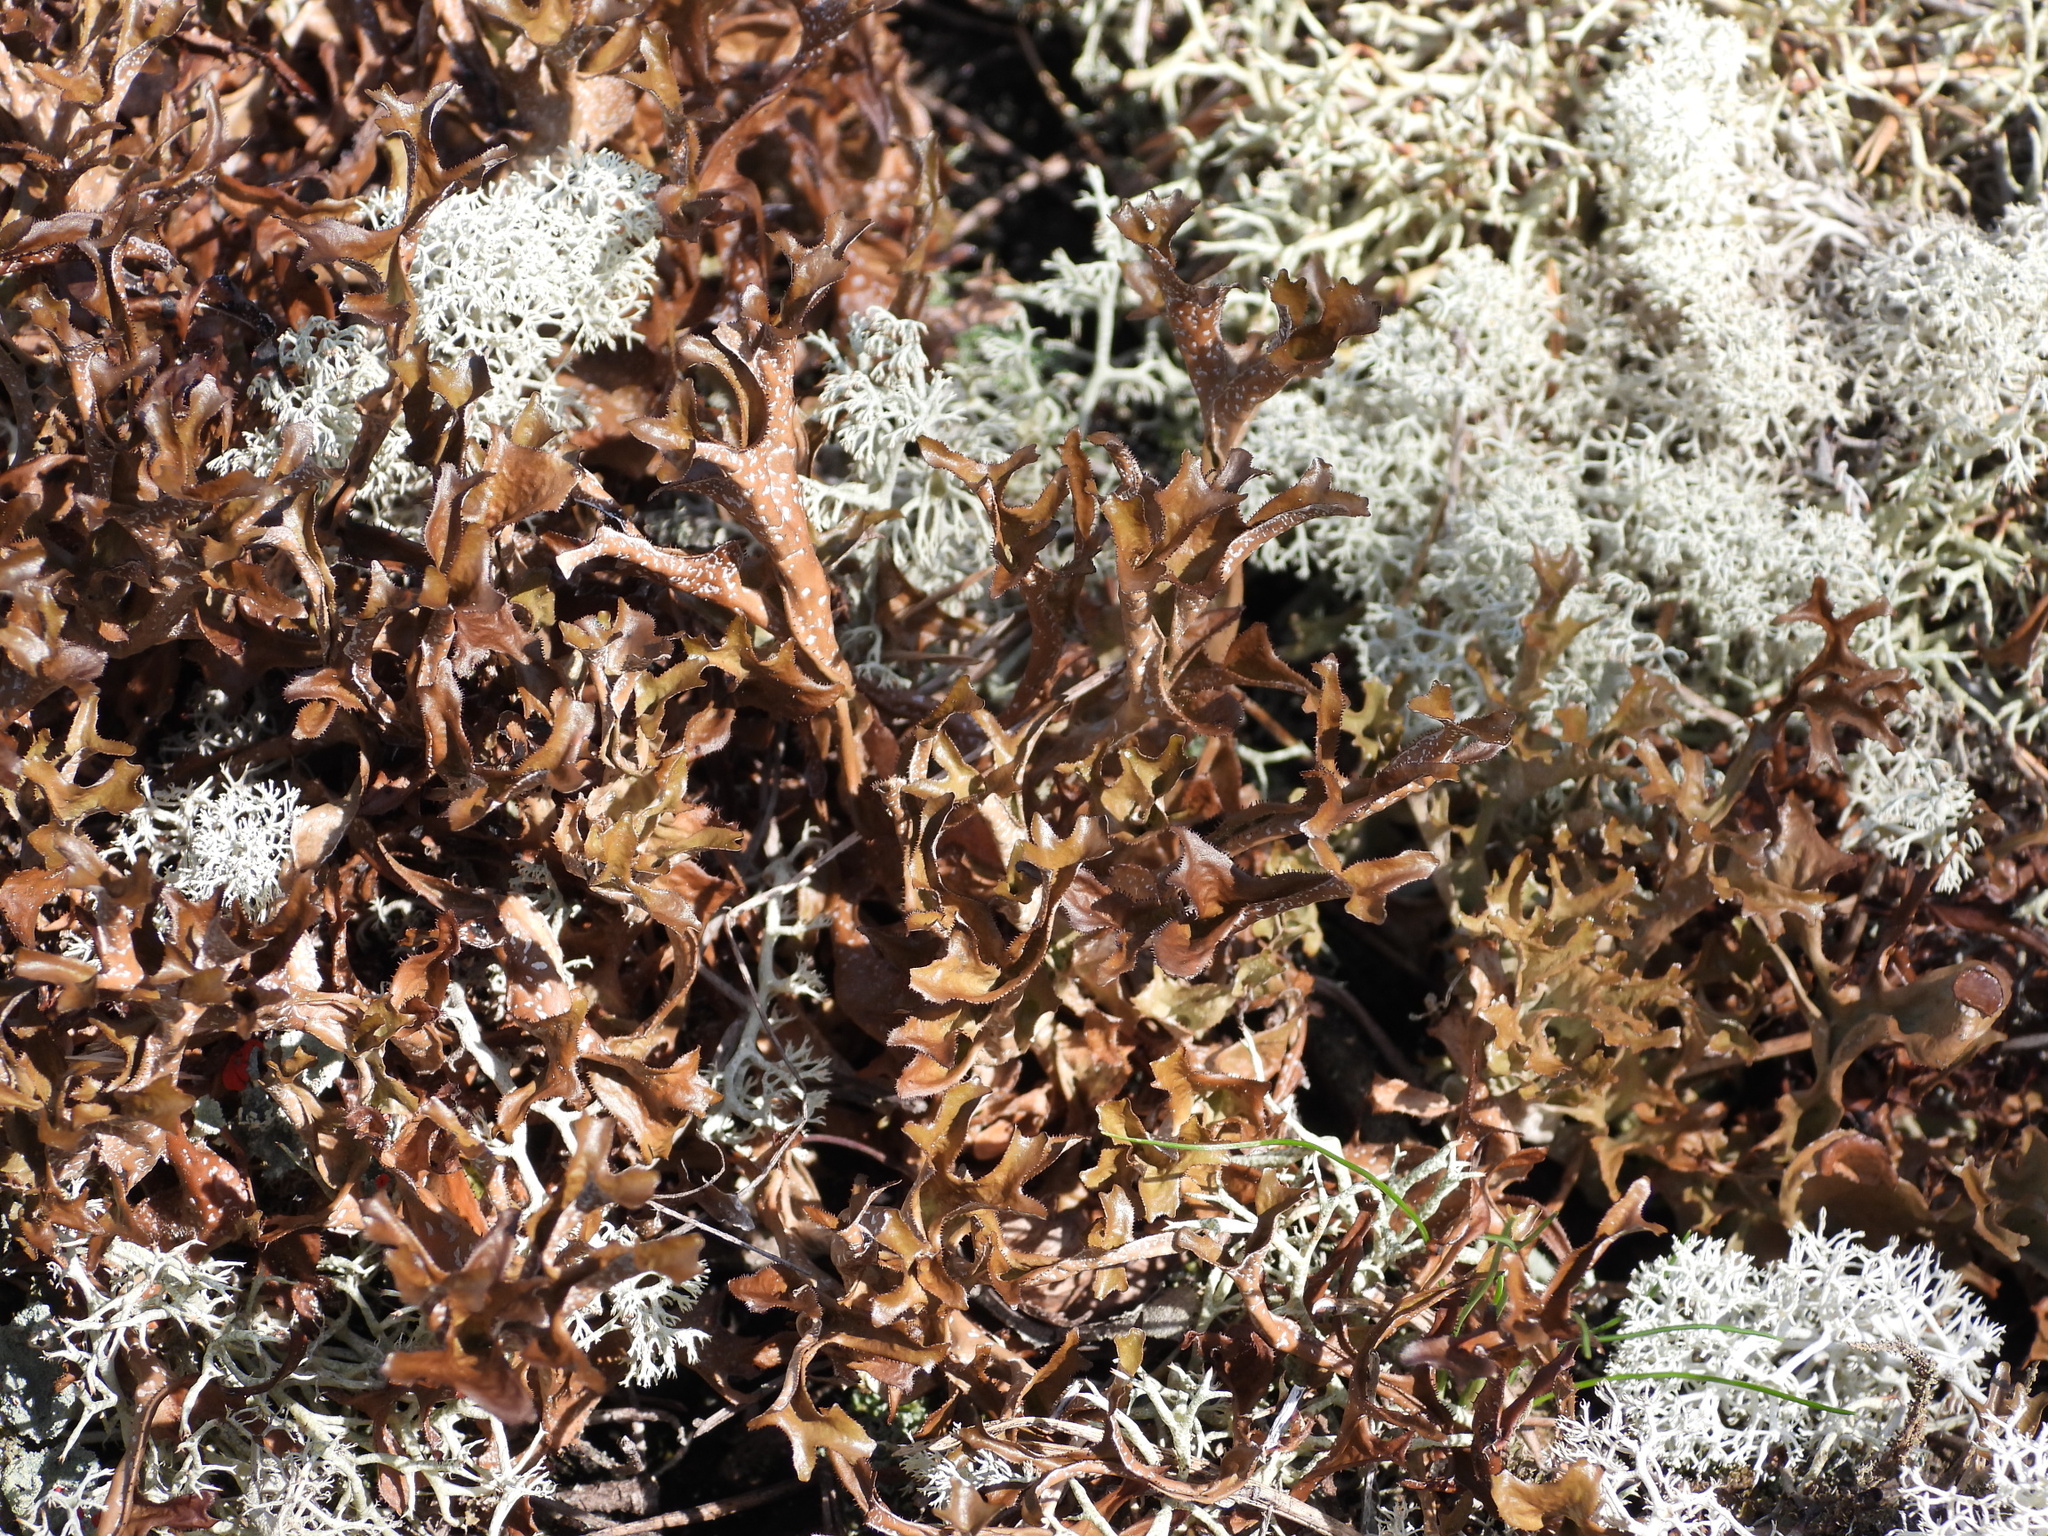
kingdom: Fungi
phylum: Ascomycota
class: Lecanoromycetes
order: Lecanorales
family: Parmeliaceae
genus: Cetraria
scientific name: Cetraria islandica
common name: Iceland lichen
